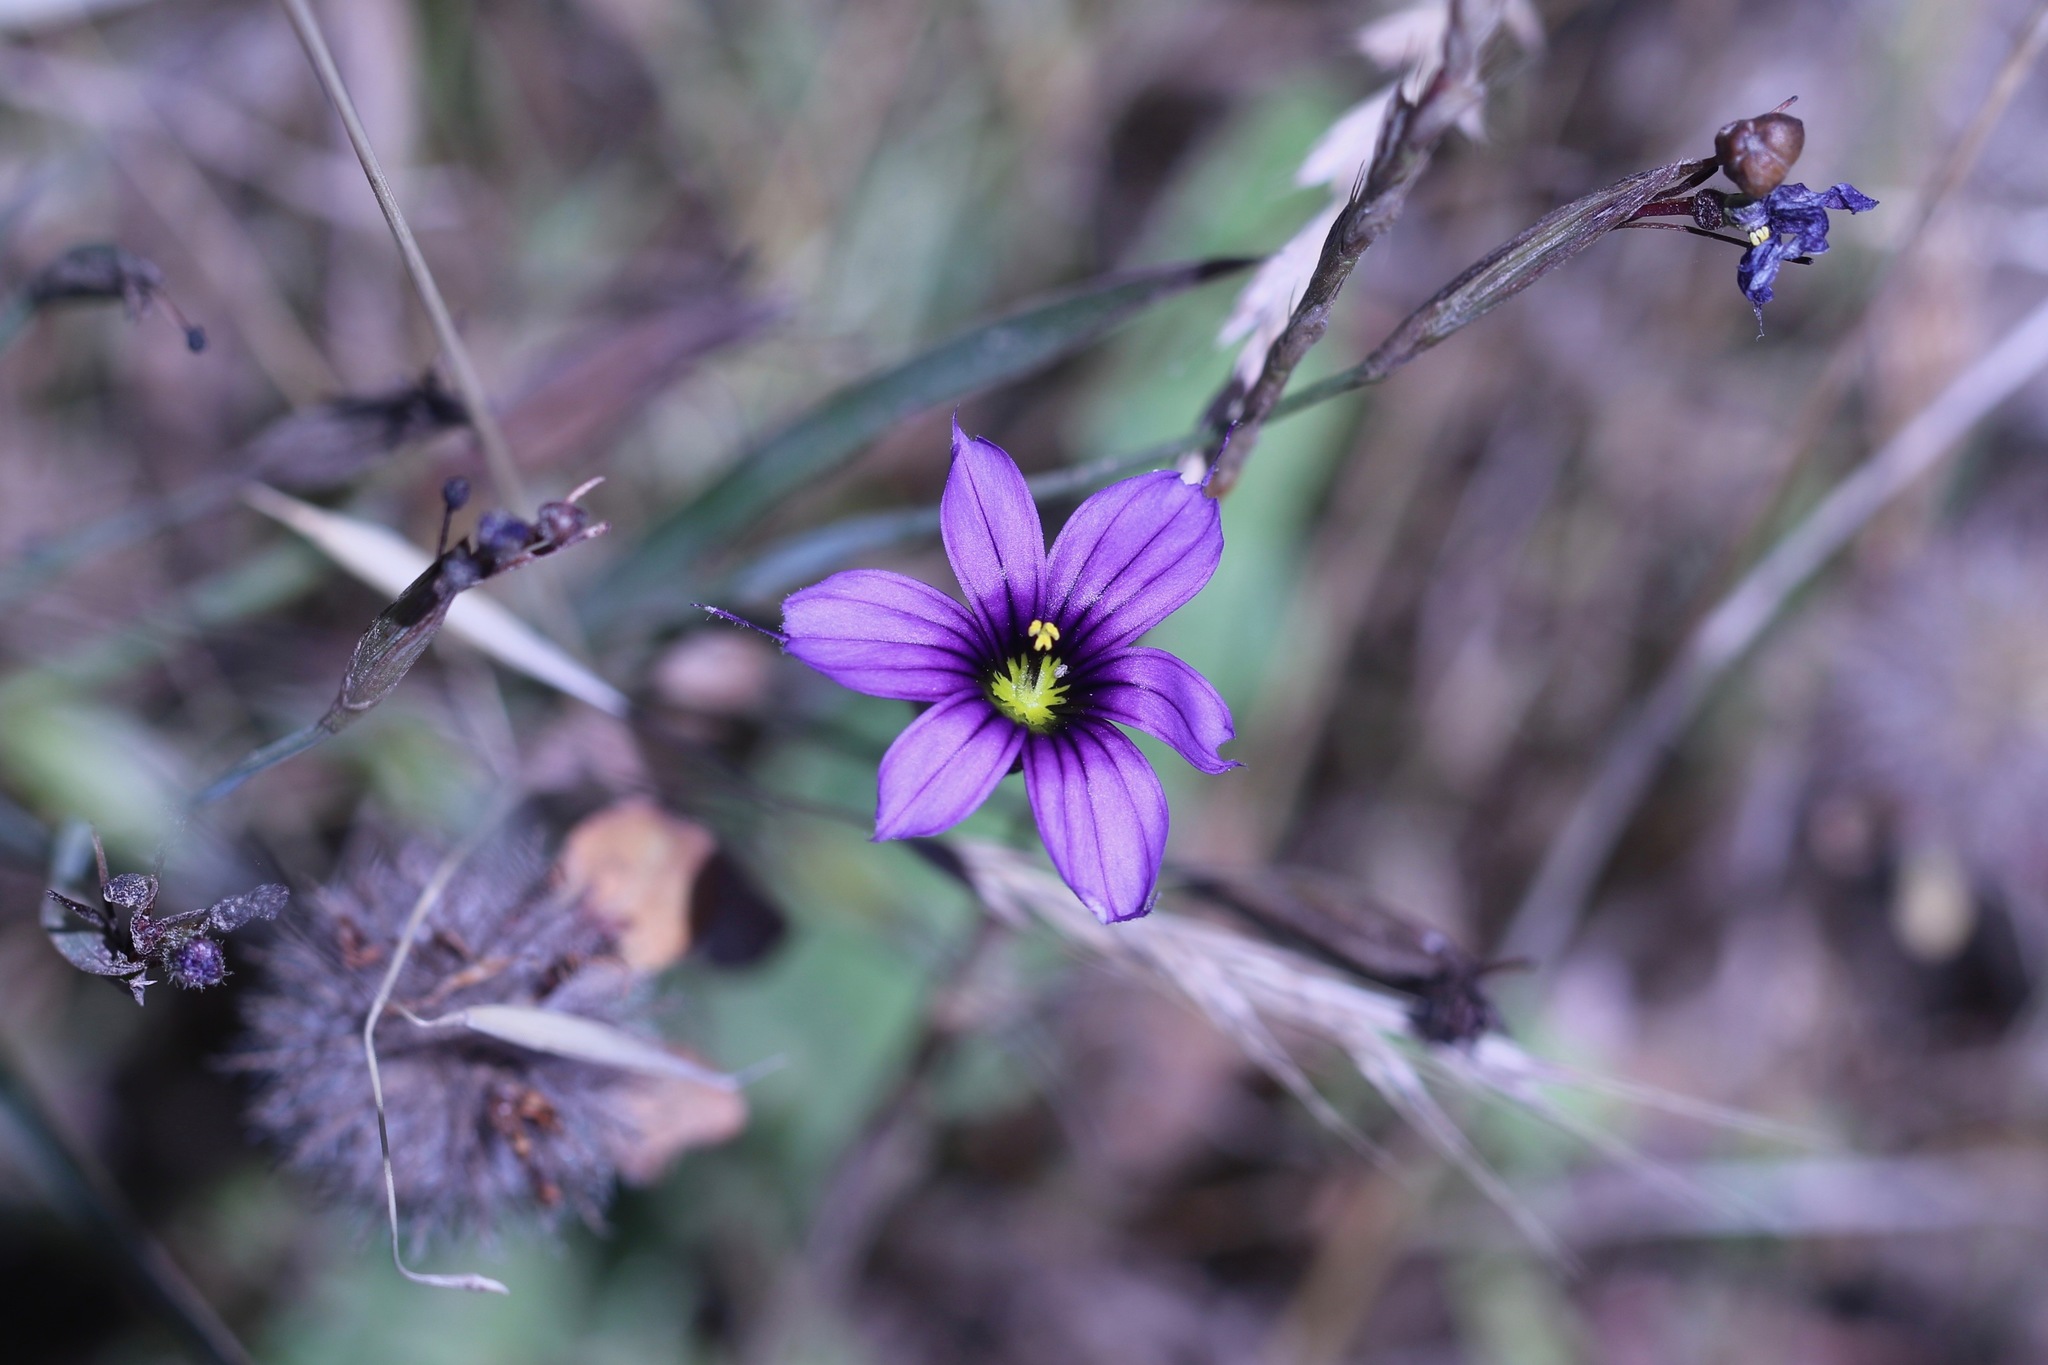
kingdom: Plantae
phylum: Tracheophyta
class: Liliopsida
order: Asparagales
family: Iridaceae
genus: Sisyrinchium
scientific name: Sisyrinchium bellum
